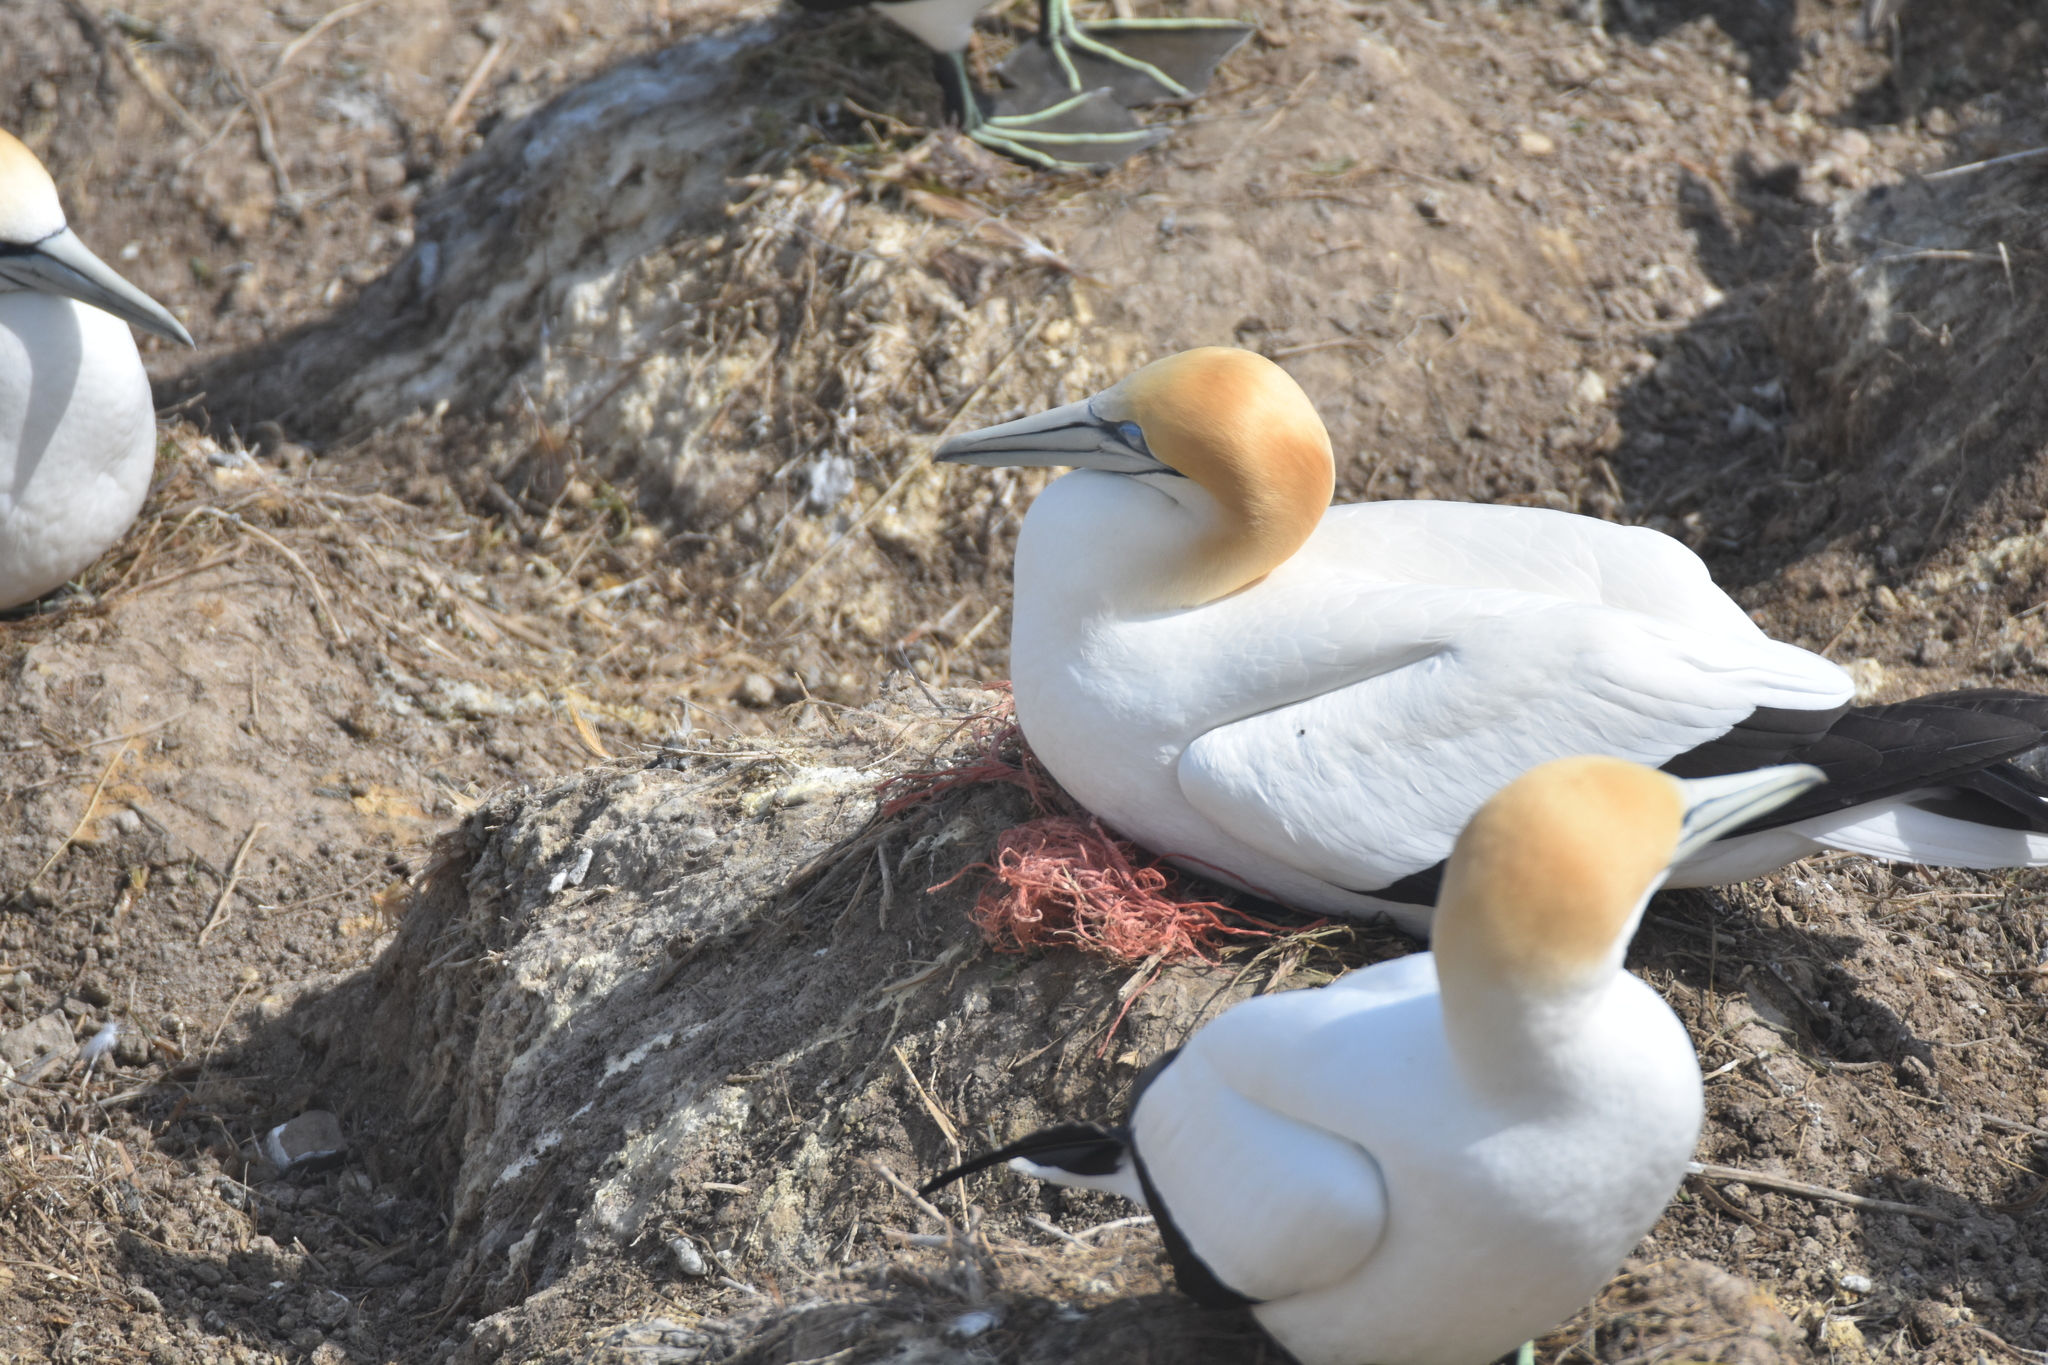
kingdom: Animalia
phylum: Chordata
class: Aves
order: Suliformes
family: Sulidae
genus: Morus
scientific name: Morus serrator
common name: Australasian gannet
